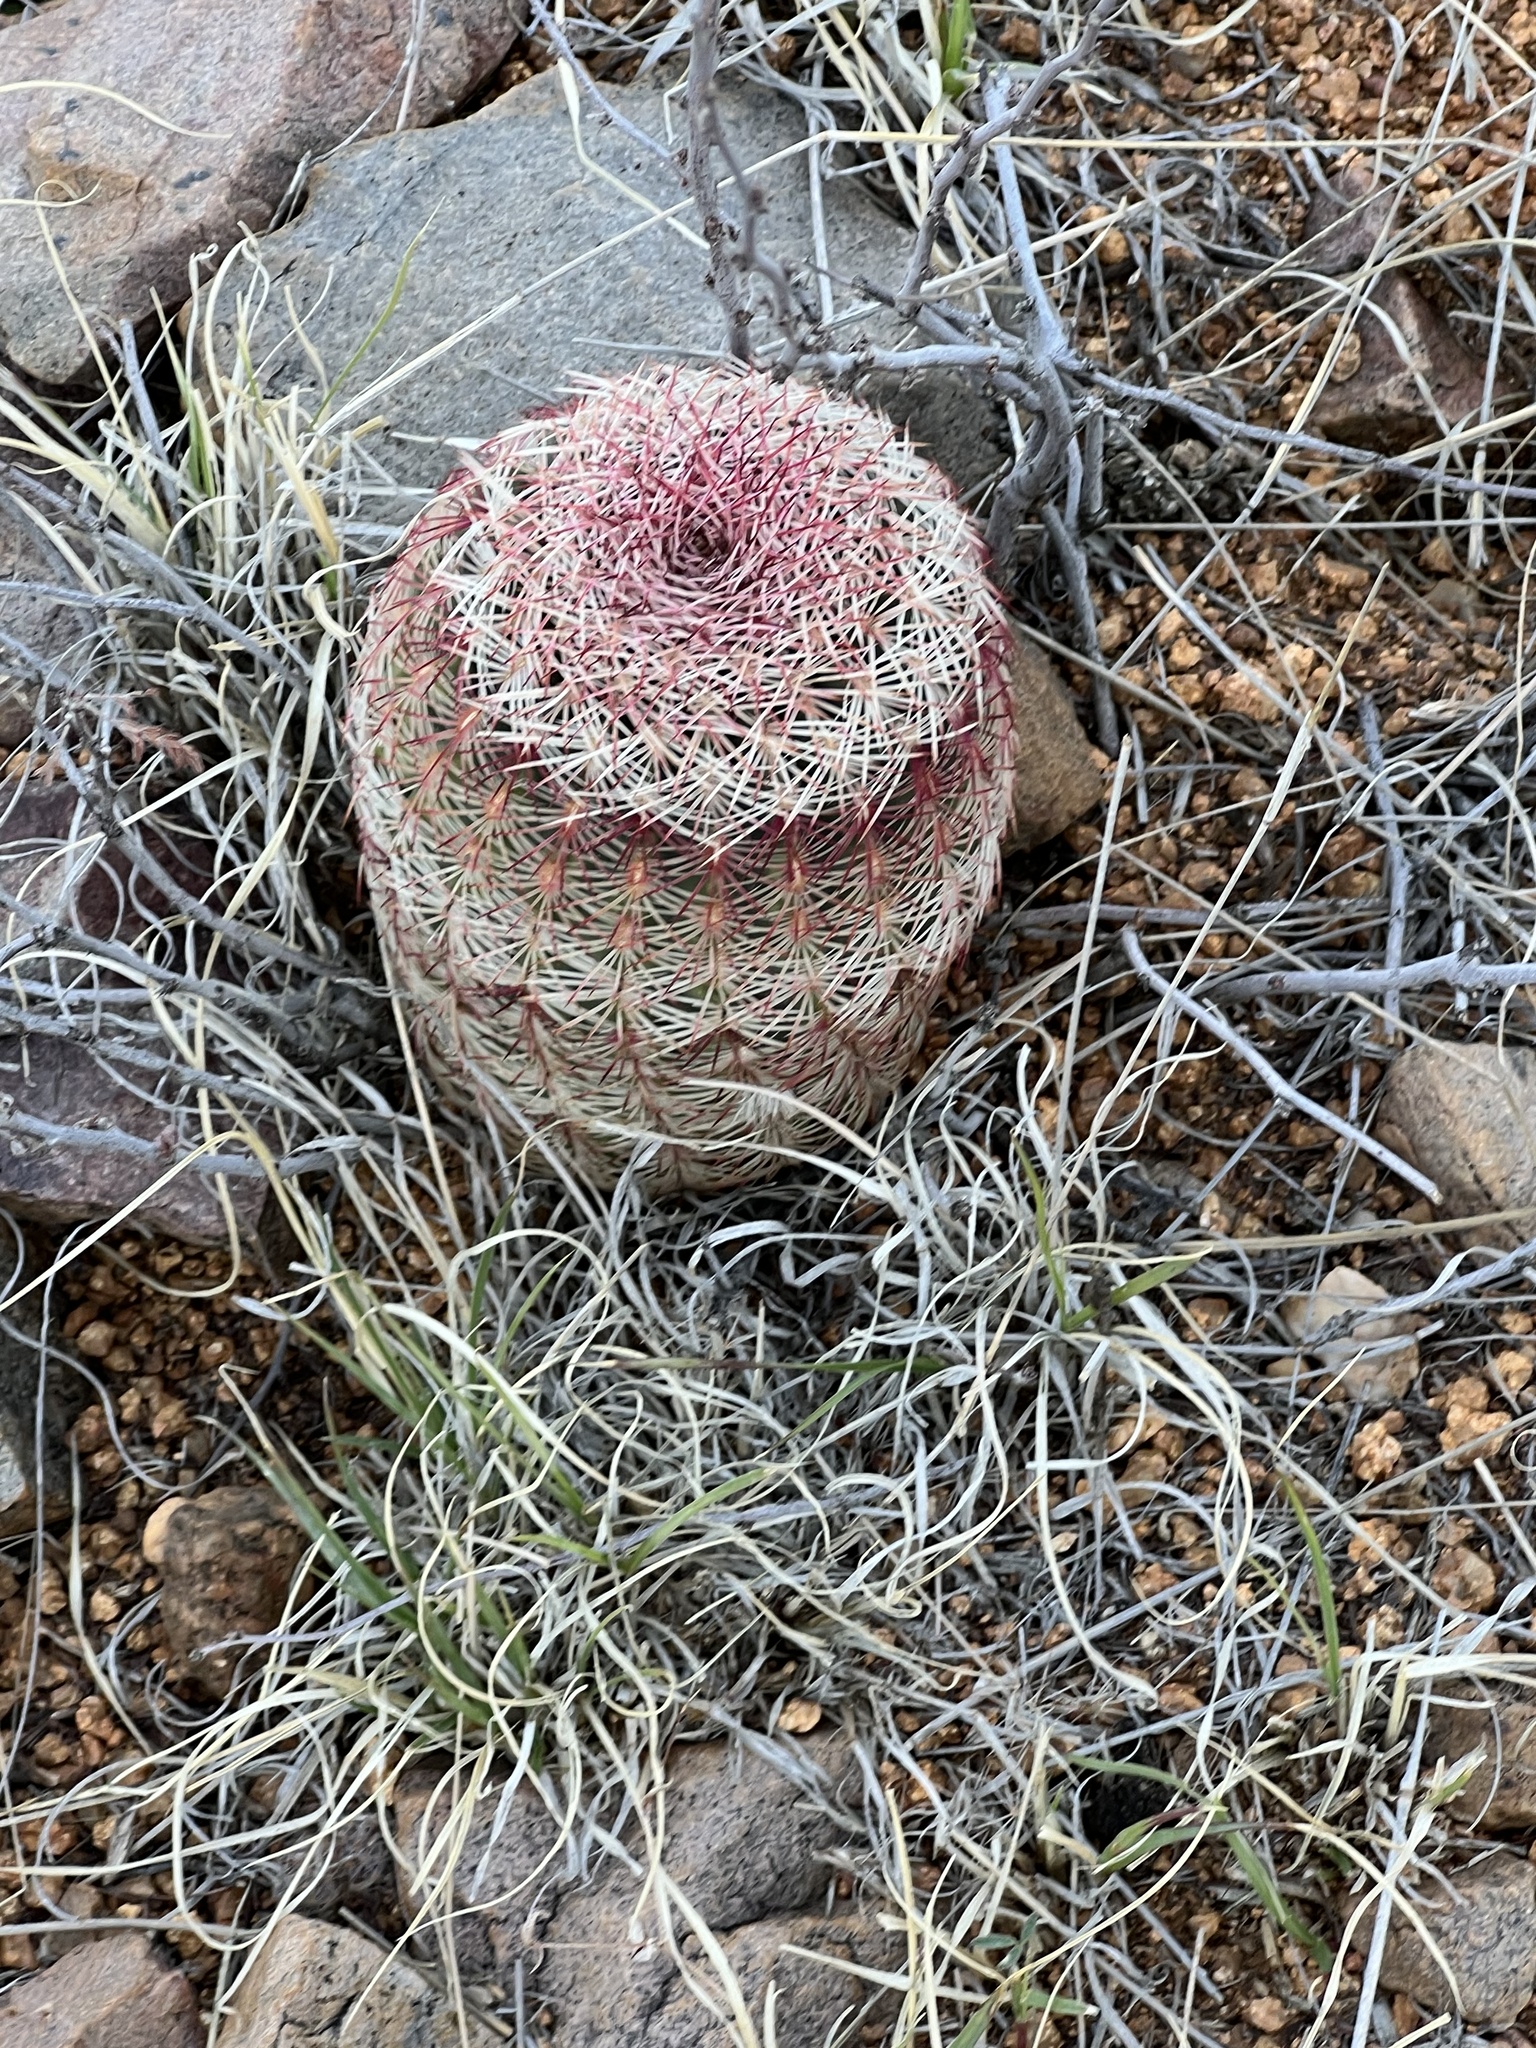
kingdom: Plantae
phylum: Tracheophyta
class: Magnoliopsida
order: Caryophyllales
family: Cactaceae
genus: Echinocereus
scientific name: Echinocereus rigidissimus
